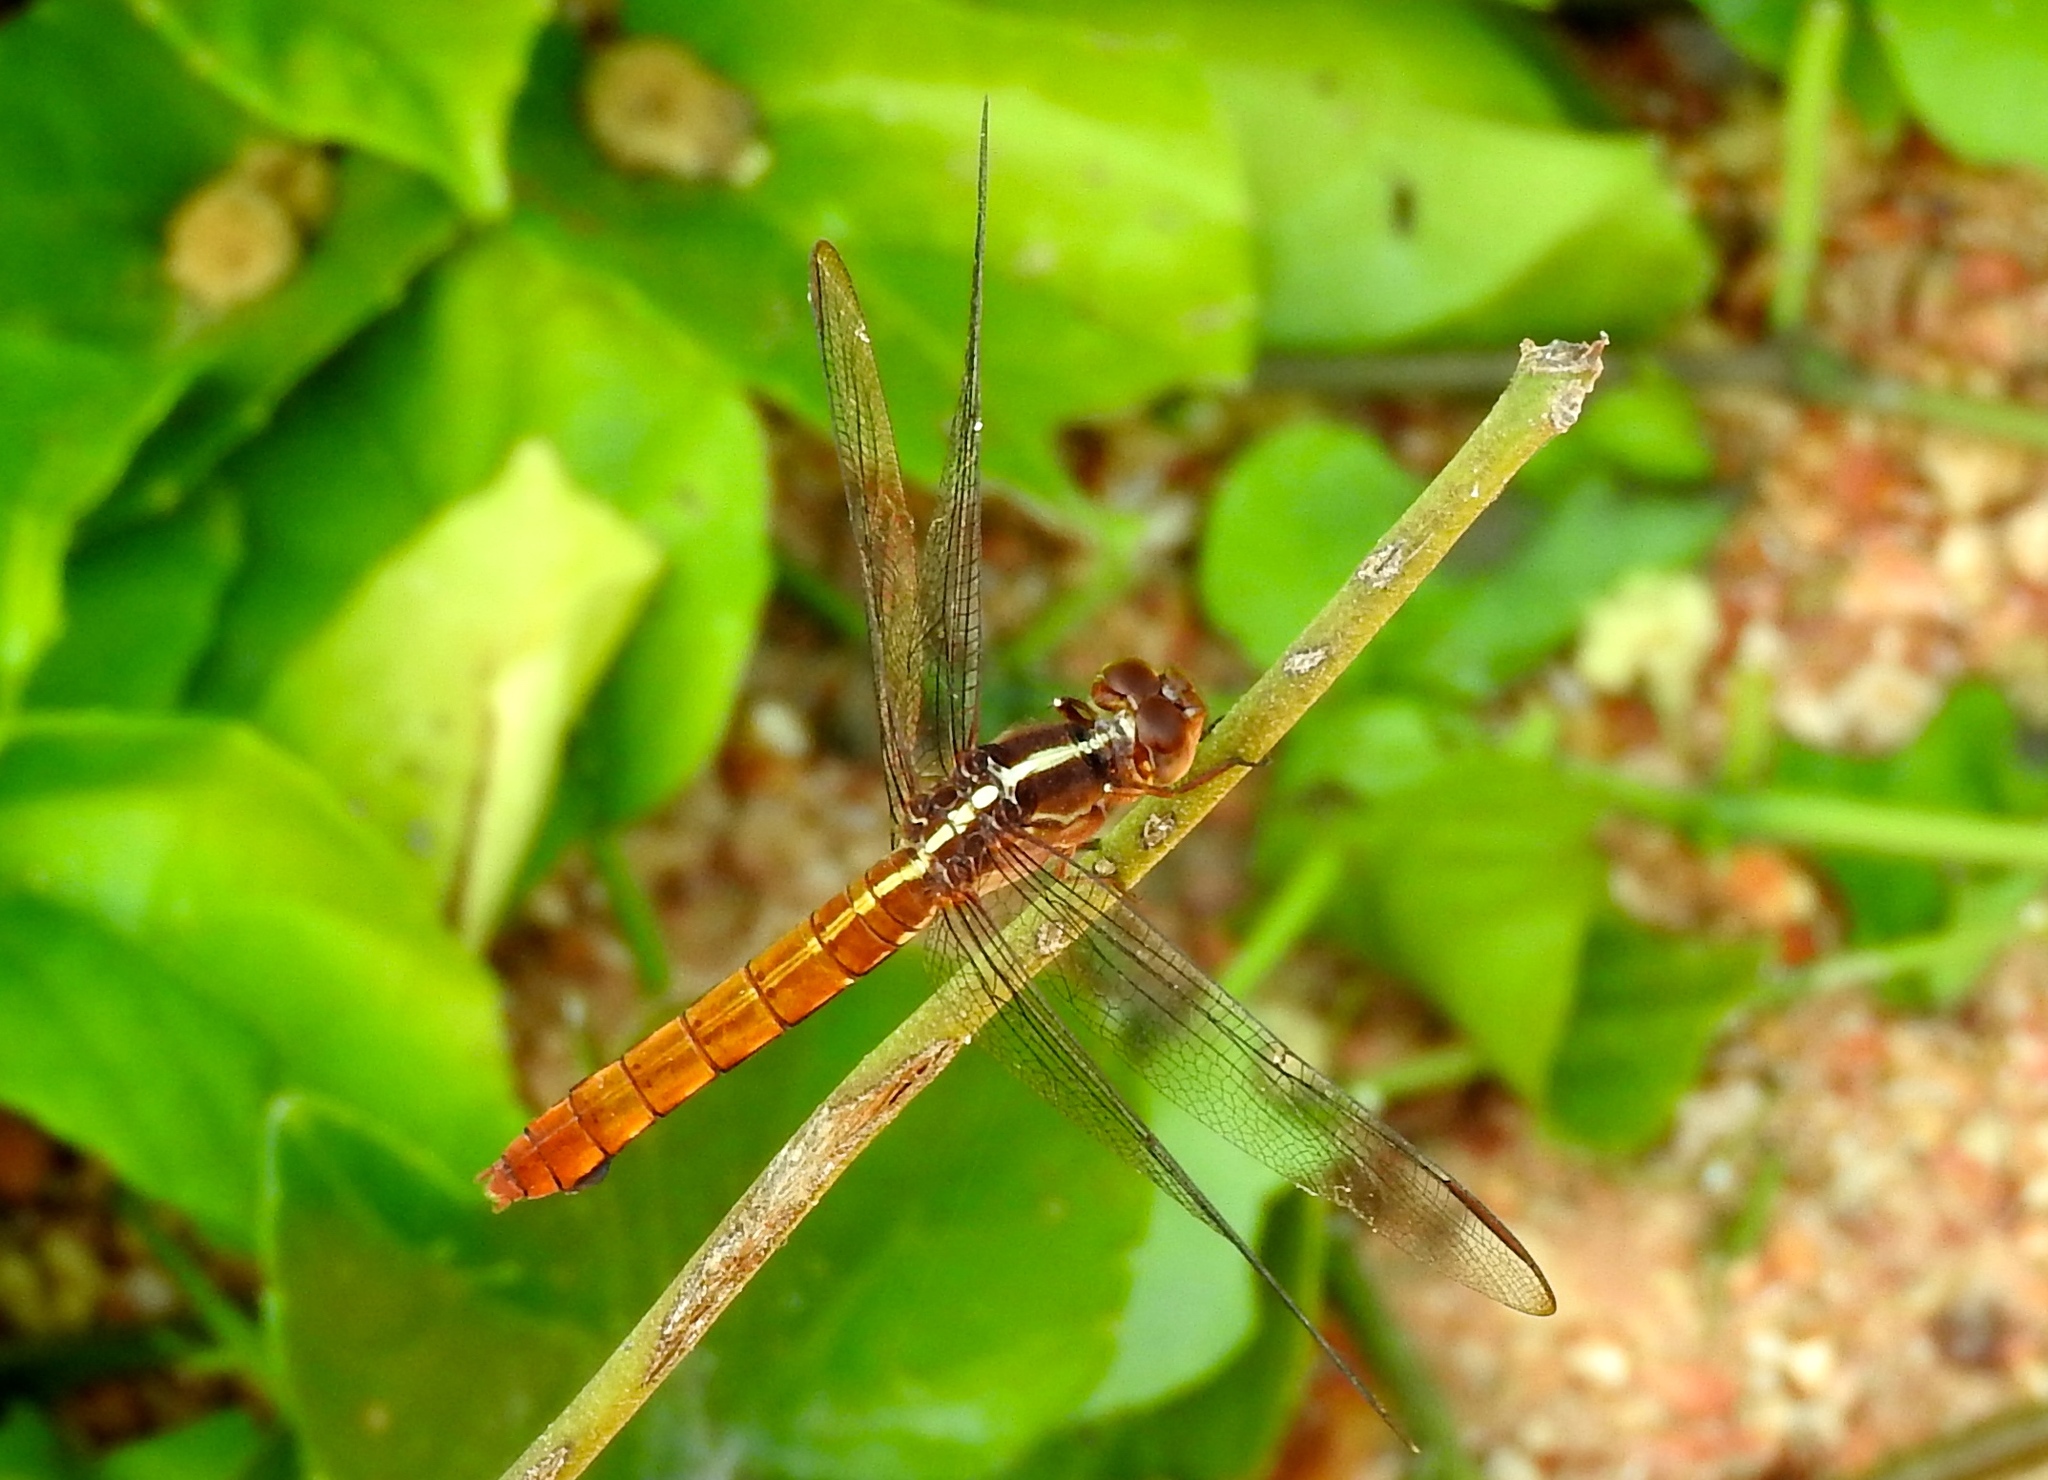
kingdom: Animalia
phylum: Arthropoda
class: Insecta
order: Odonata
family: Libellulidae
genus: Orthemis
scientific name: Orthemis discolor
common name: Carmine skimmer
